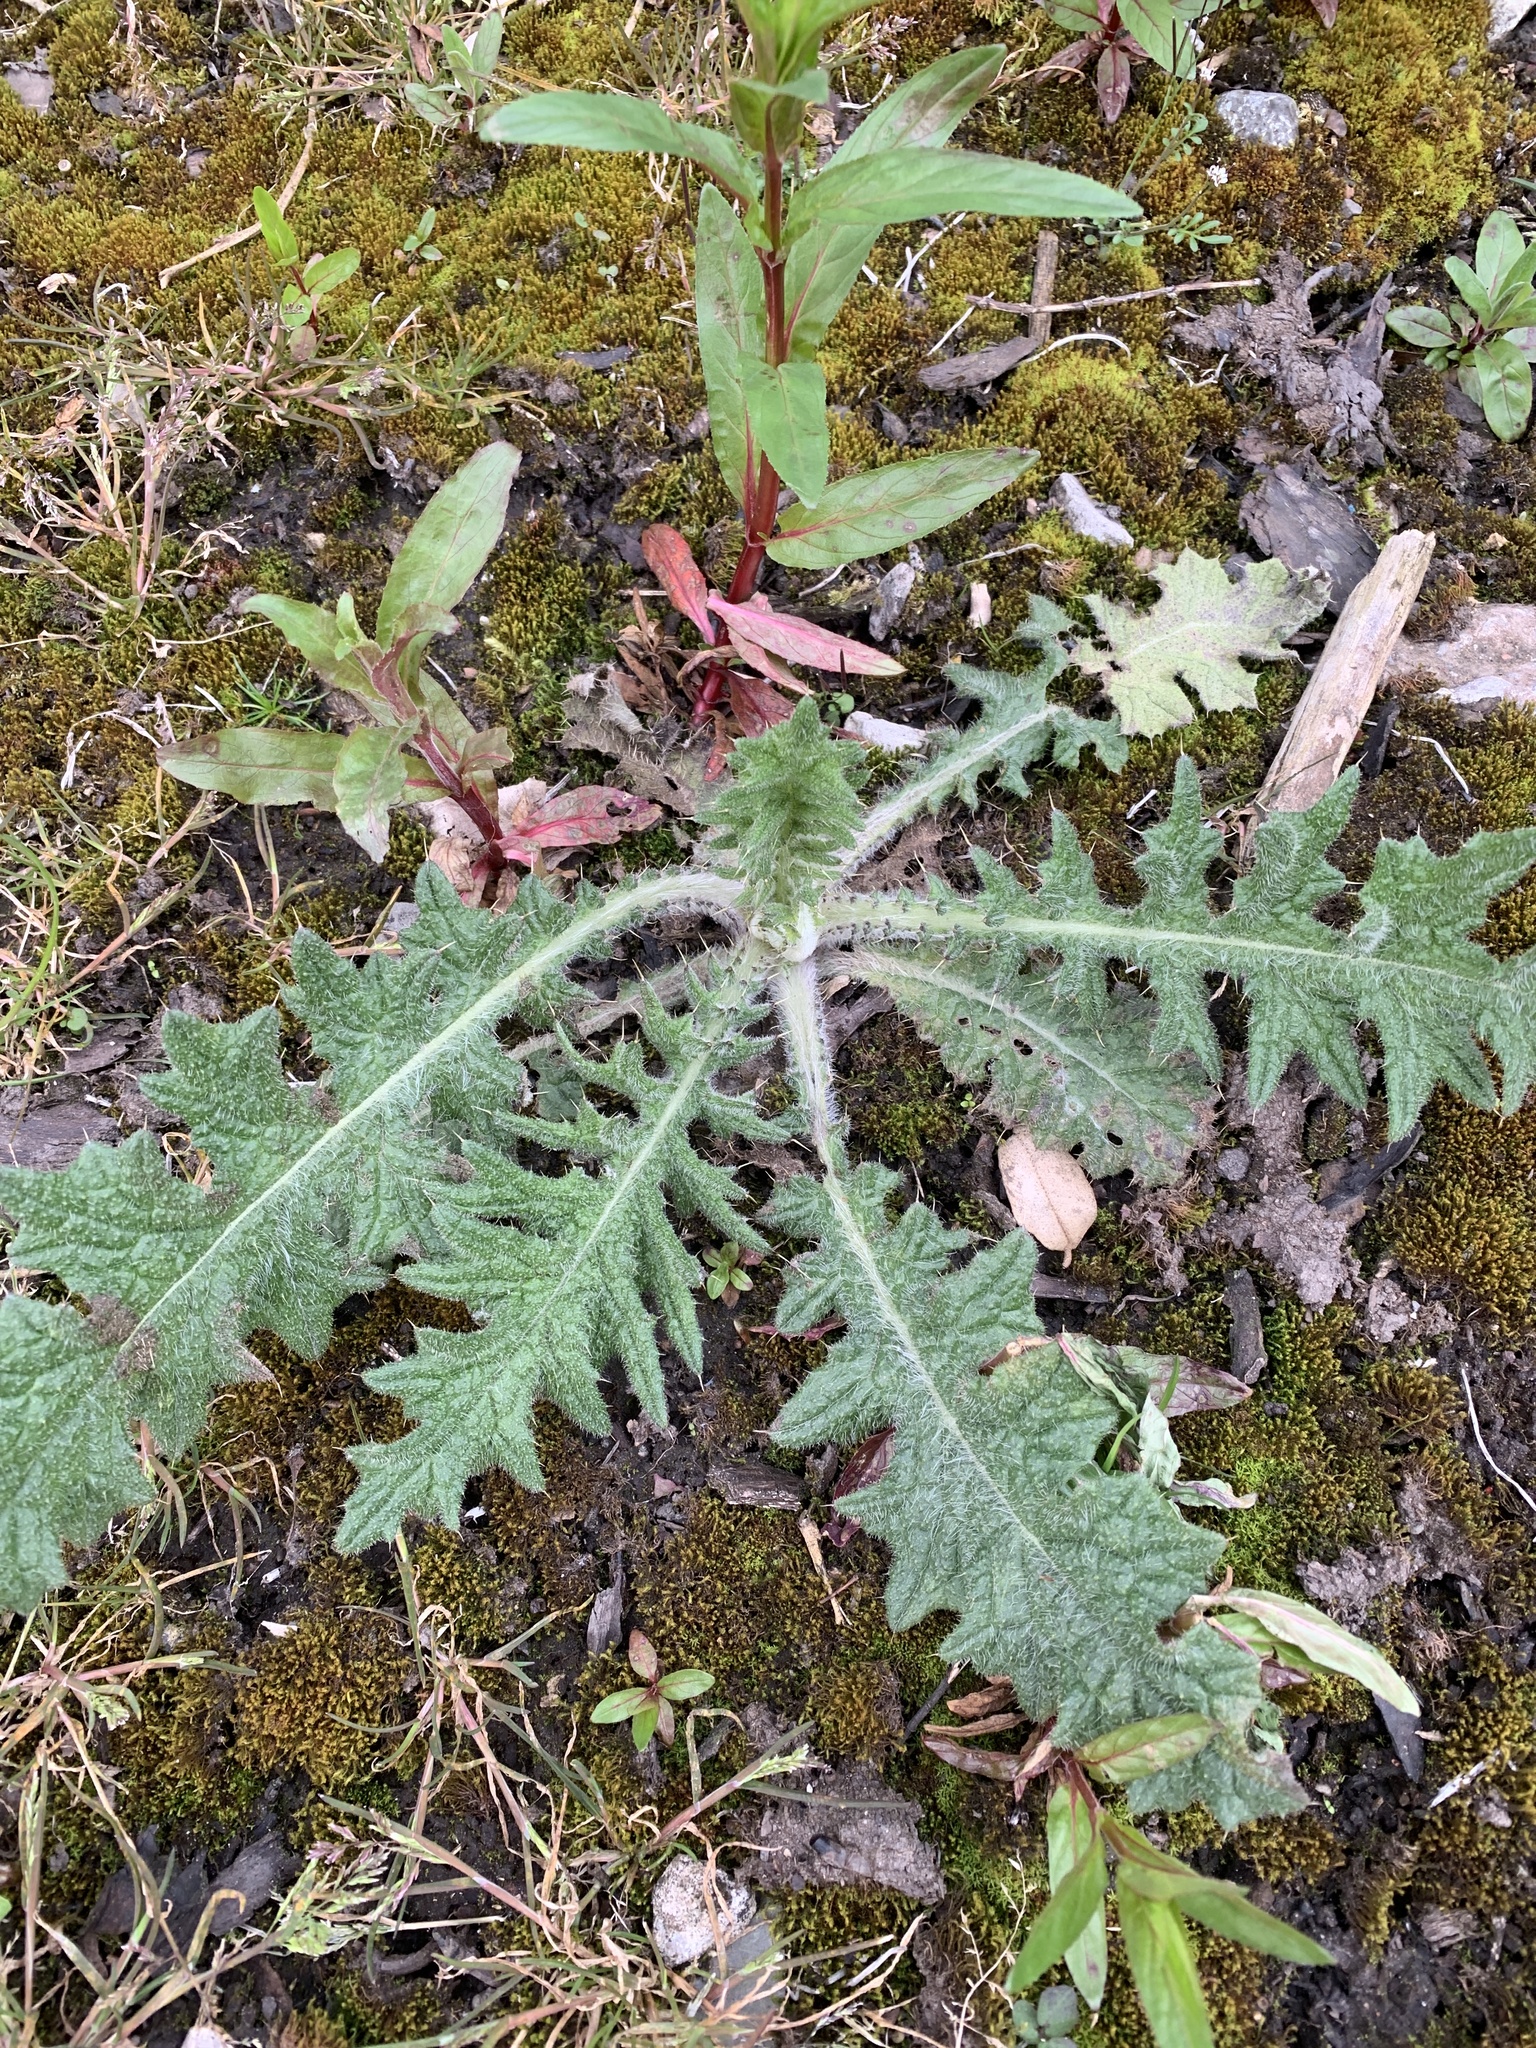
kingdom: Plantae
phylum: Tracheophyta
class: Magnoliopsida
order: Asterales
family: Asteraceae
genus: Cirsium
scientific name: Cirsium vulgare
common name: Bull thistle
